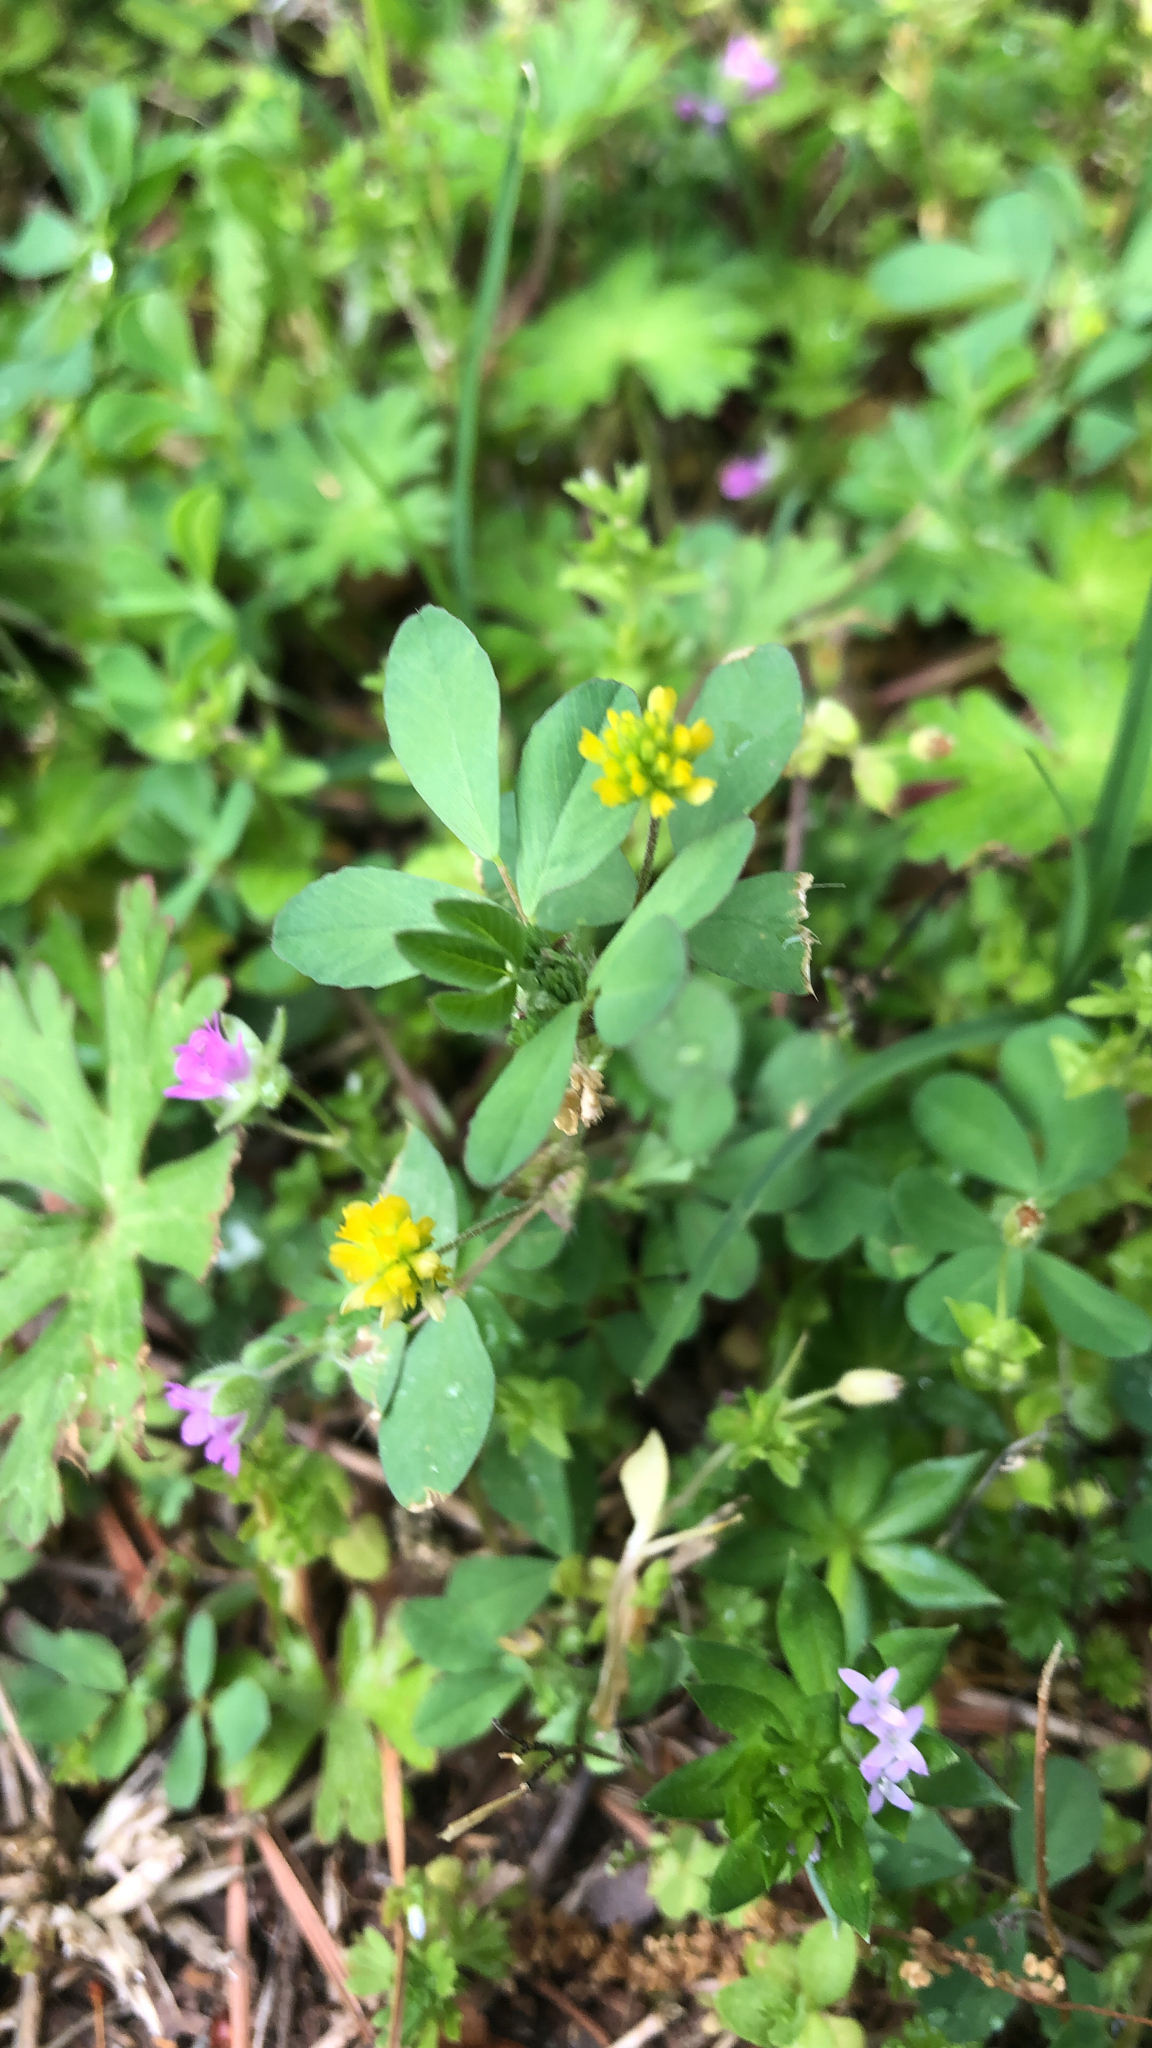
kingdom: Plantae
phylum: Tracheophyta
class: Magnoliopsida
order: Fabales
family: Fabaceae
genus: Trifolium
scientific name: Trifolium dubium
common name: Suckling clover
